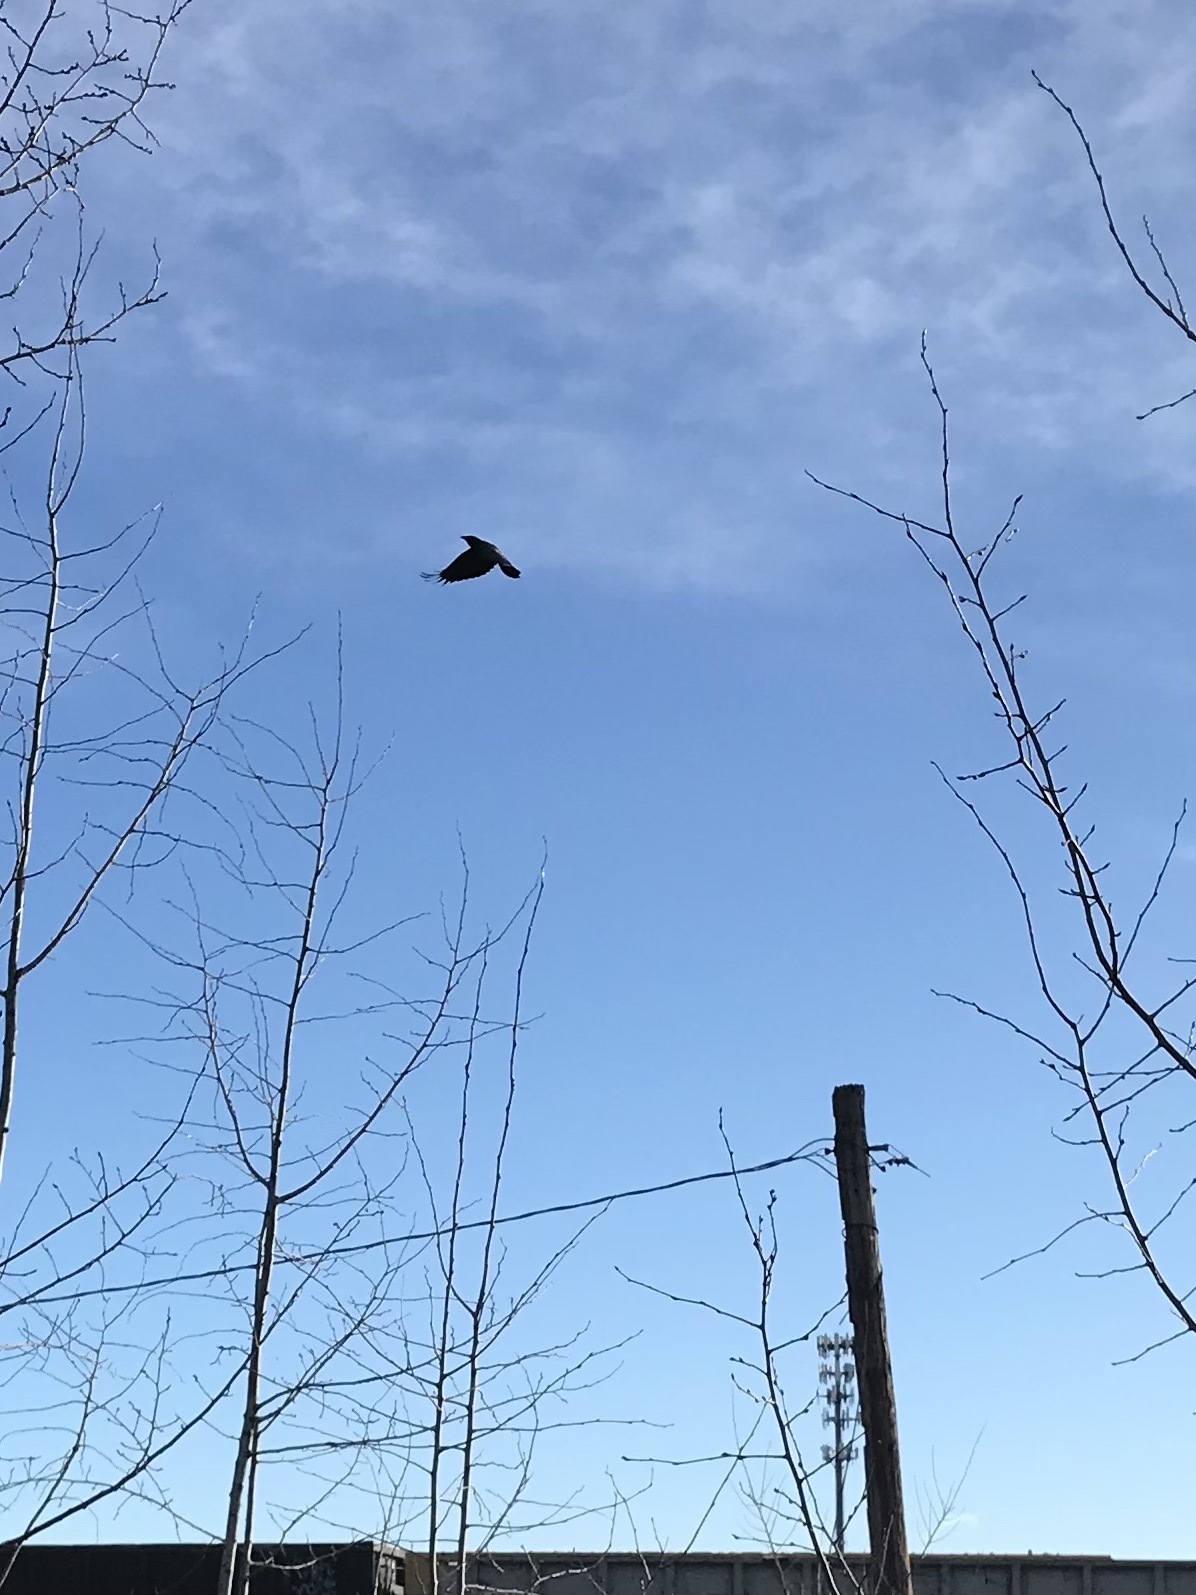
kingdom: Animalia
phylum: Chordata
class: Aves
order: Passeriformes
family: Corvidae
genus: Corvus
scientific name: Corvus brachyrhynchos
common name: American crow
